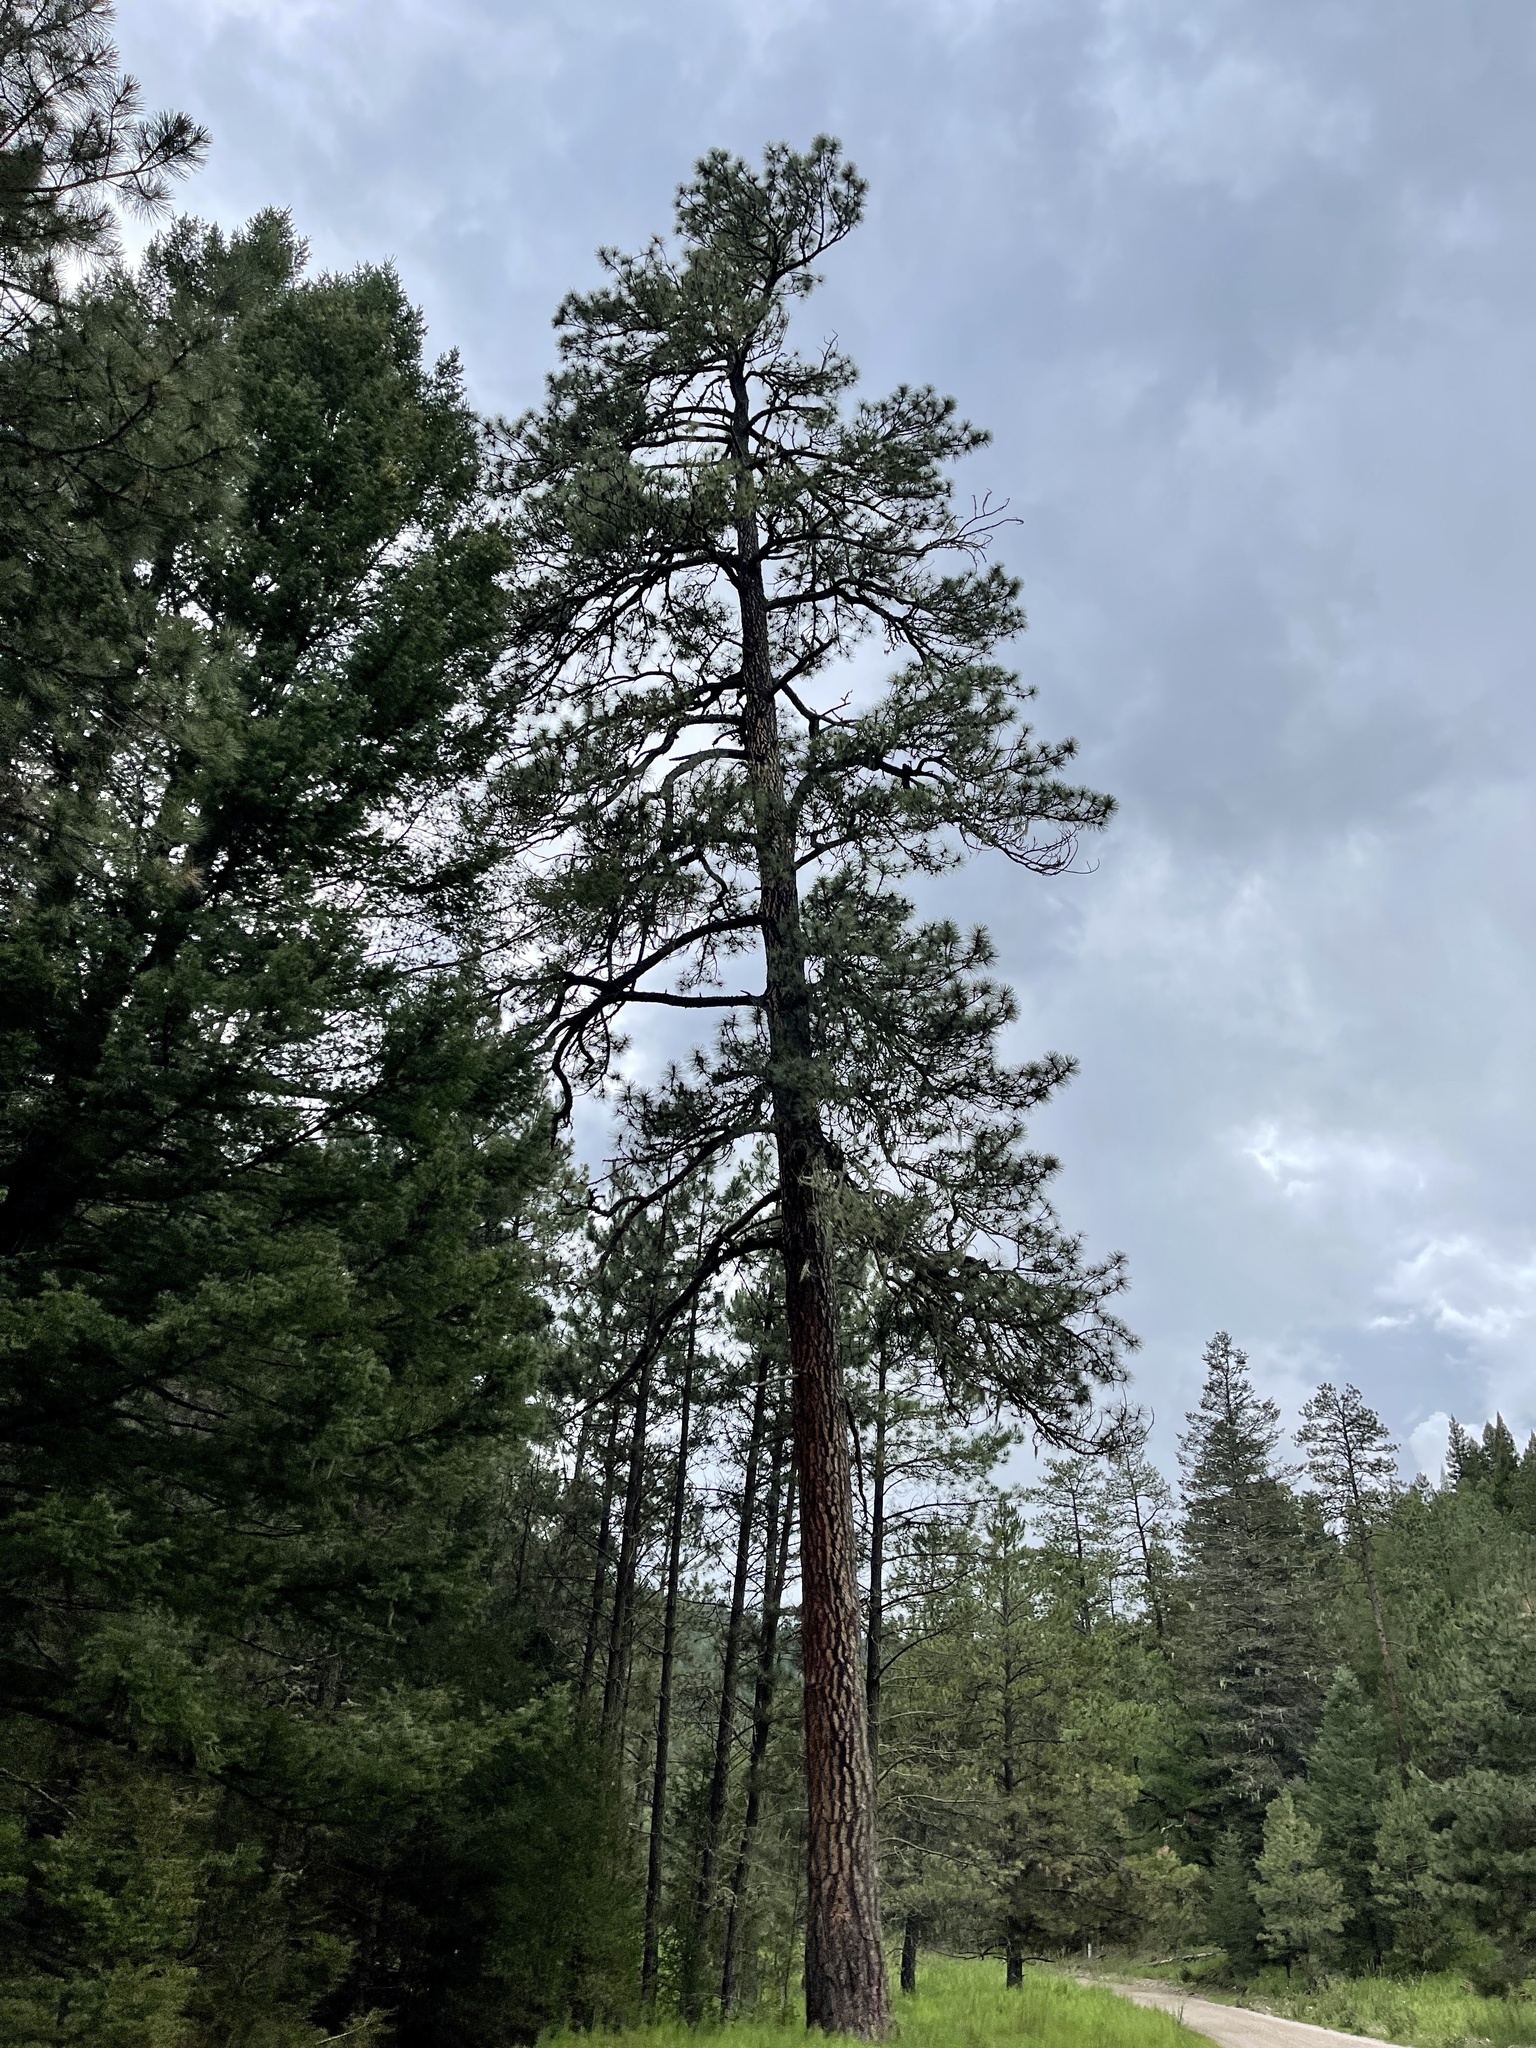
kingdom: Plantae
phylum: Tracheophyta
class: Pinopsida
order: Pinales
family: Pinaceae
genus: Pinus
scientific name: Pinus ponderosa
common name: Western yellow-pine
